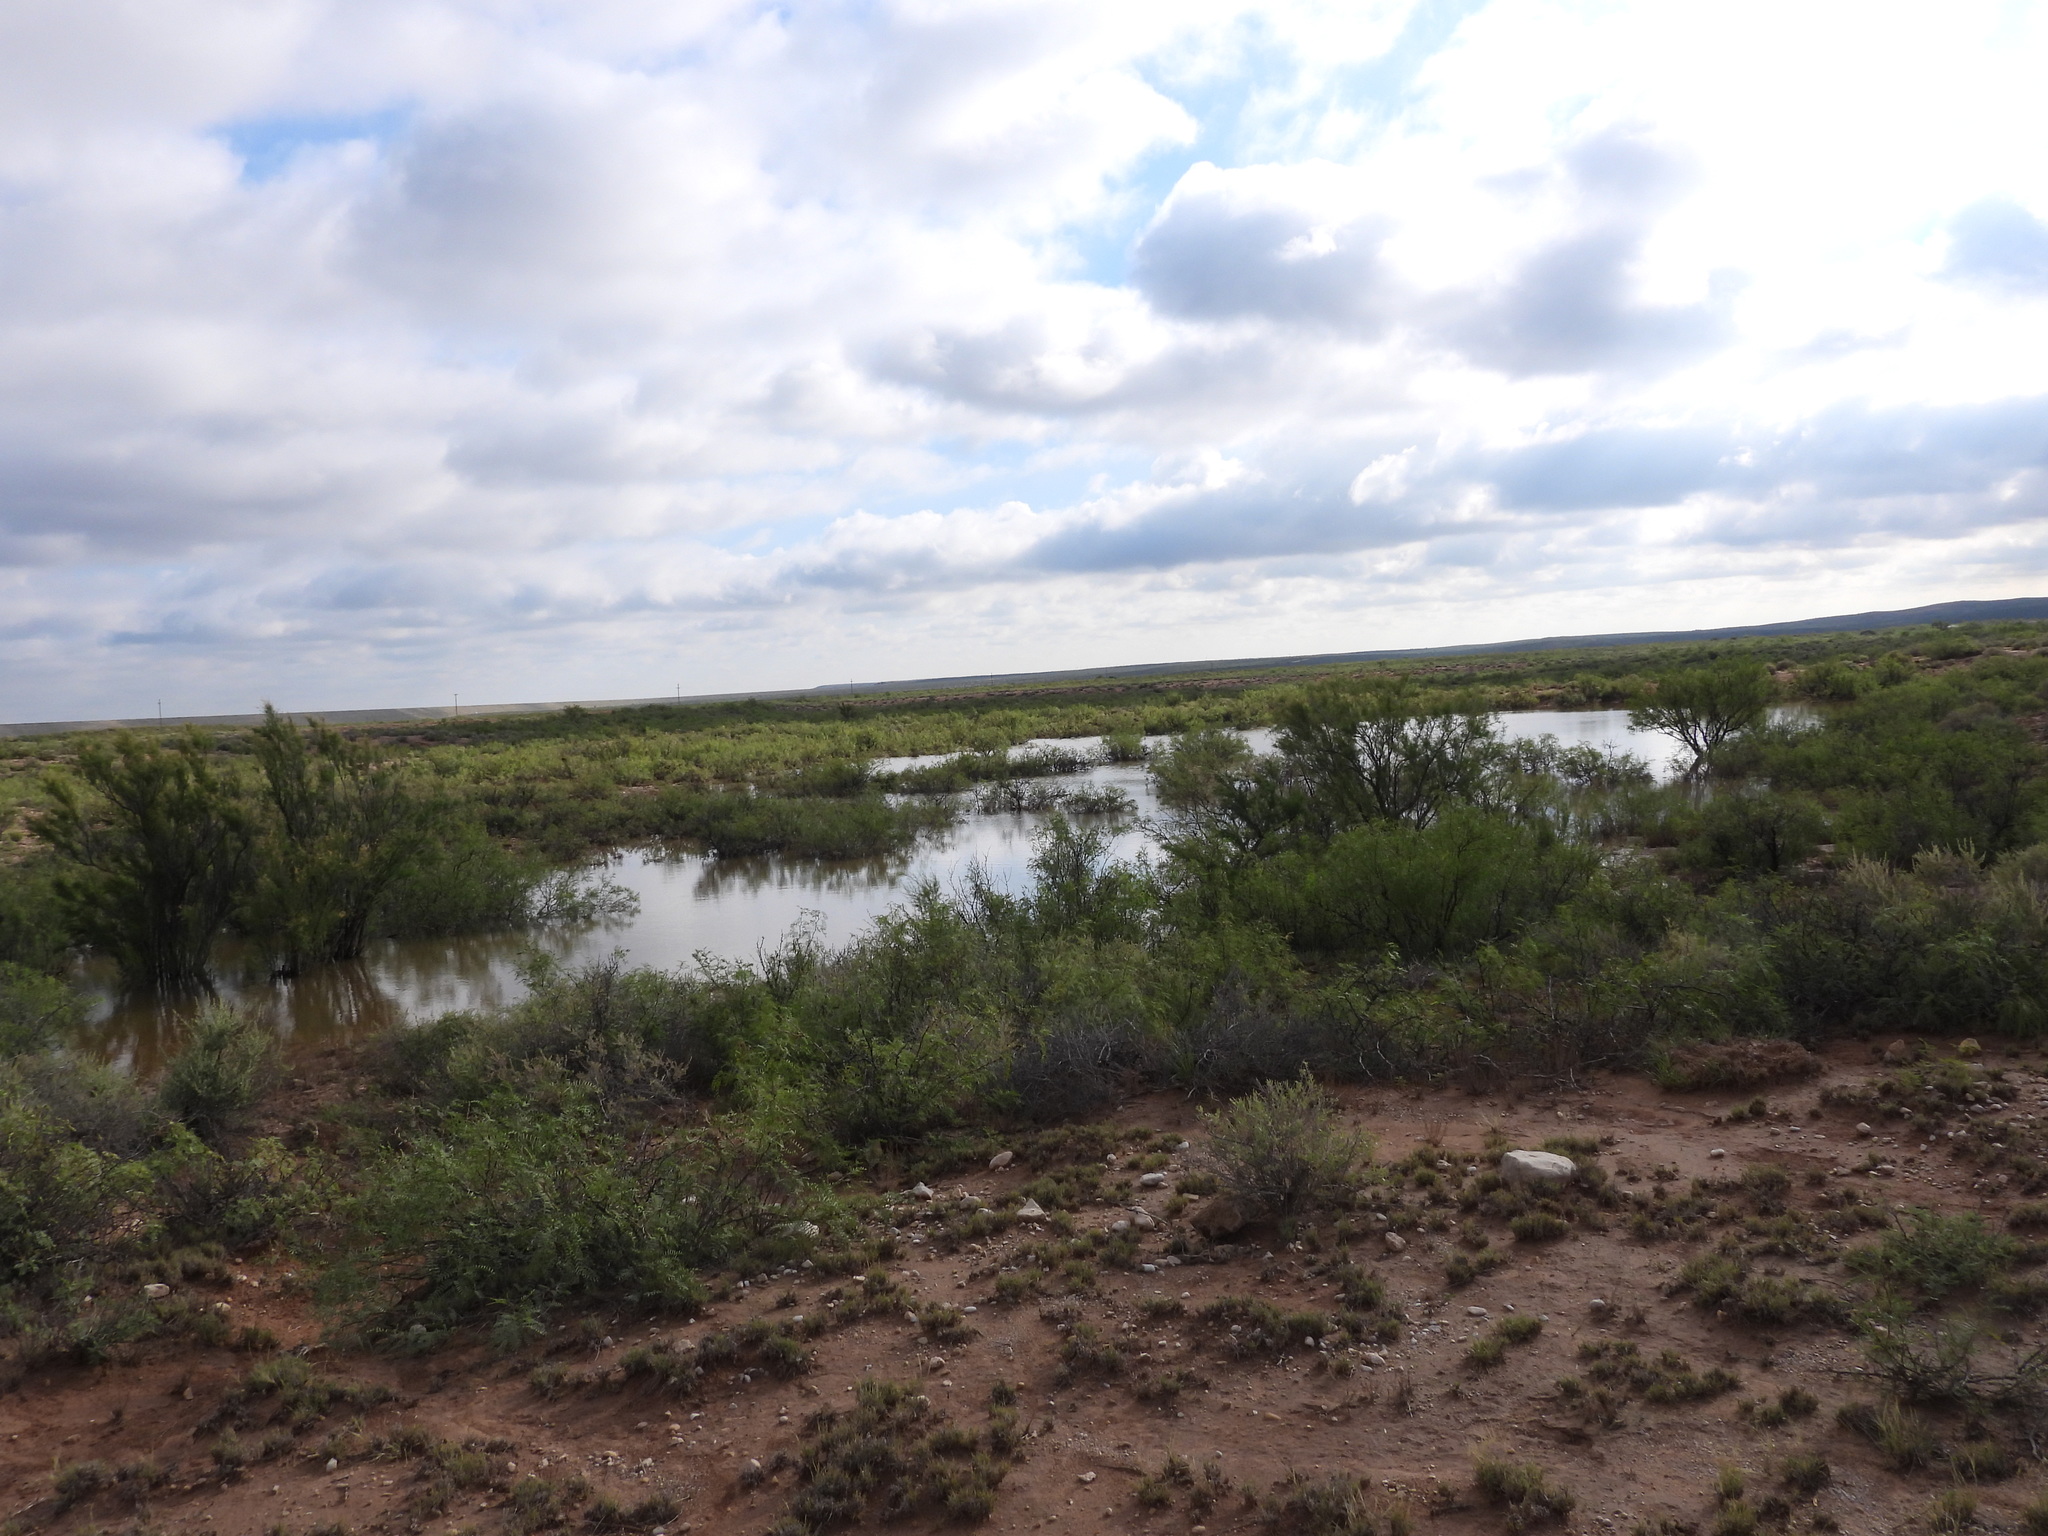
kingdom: Animalia
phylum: Chordata
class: Amphibia
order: Anura
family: Bufonidae
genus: Anaxyrus
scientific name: Anaxyrus debilis
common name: Green toad
